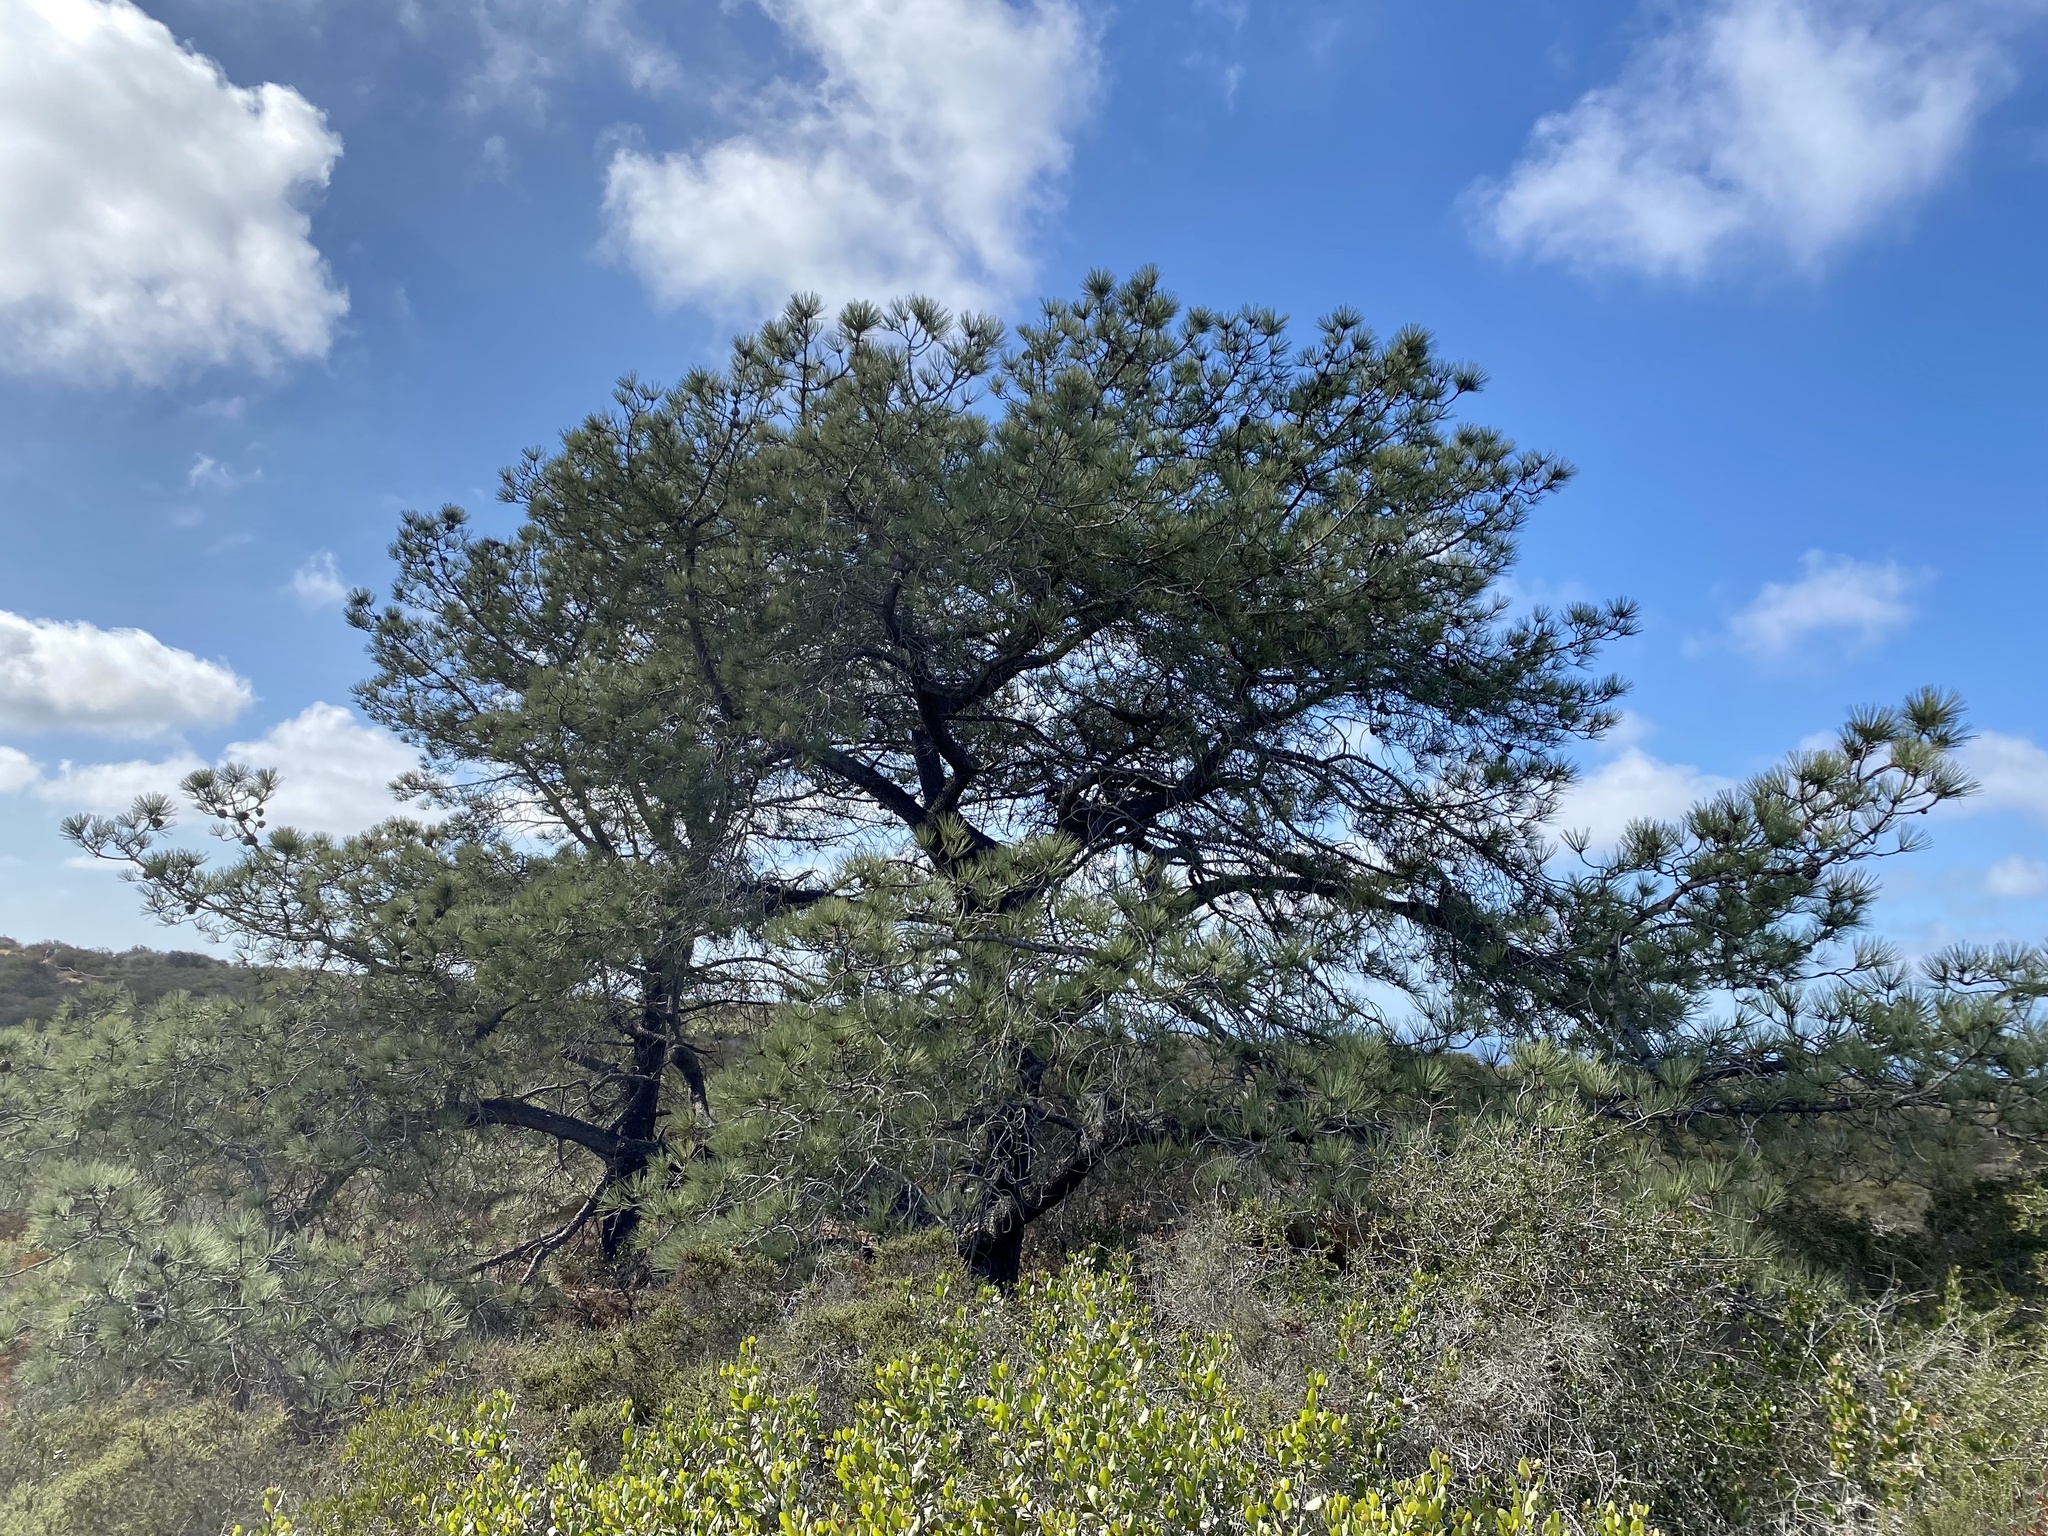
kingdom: Plantae
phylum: Tracheophyta
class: Pinopsida
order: Pinales
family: Pinaceae
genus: Pinus
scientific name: Pinus torreyana
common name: Torrey pine
